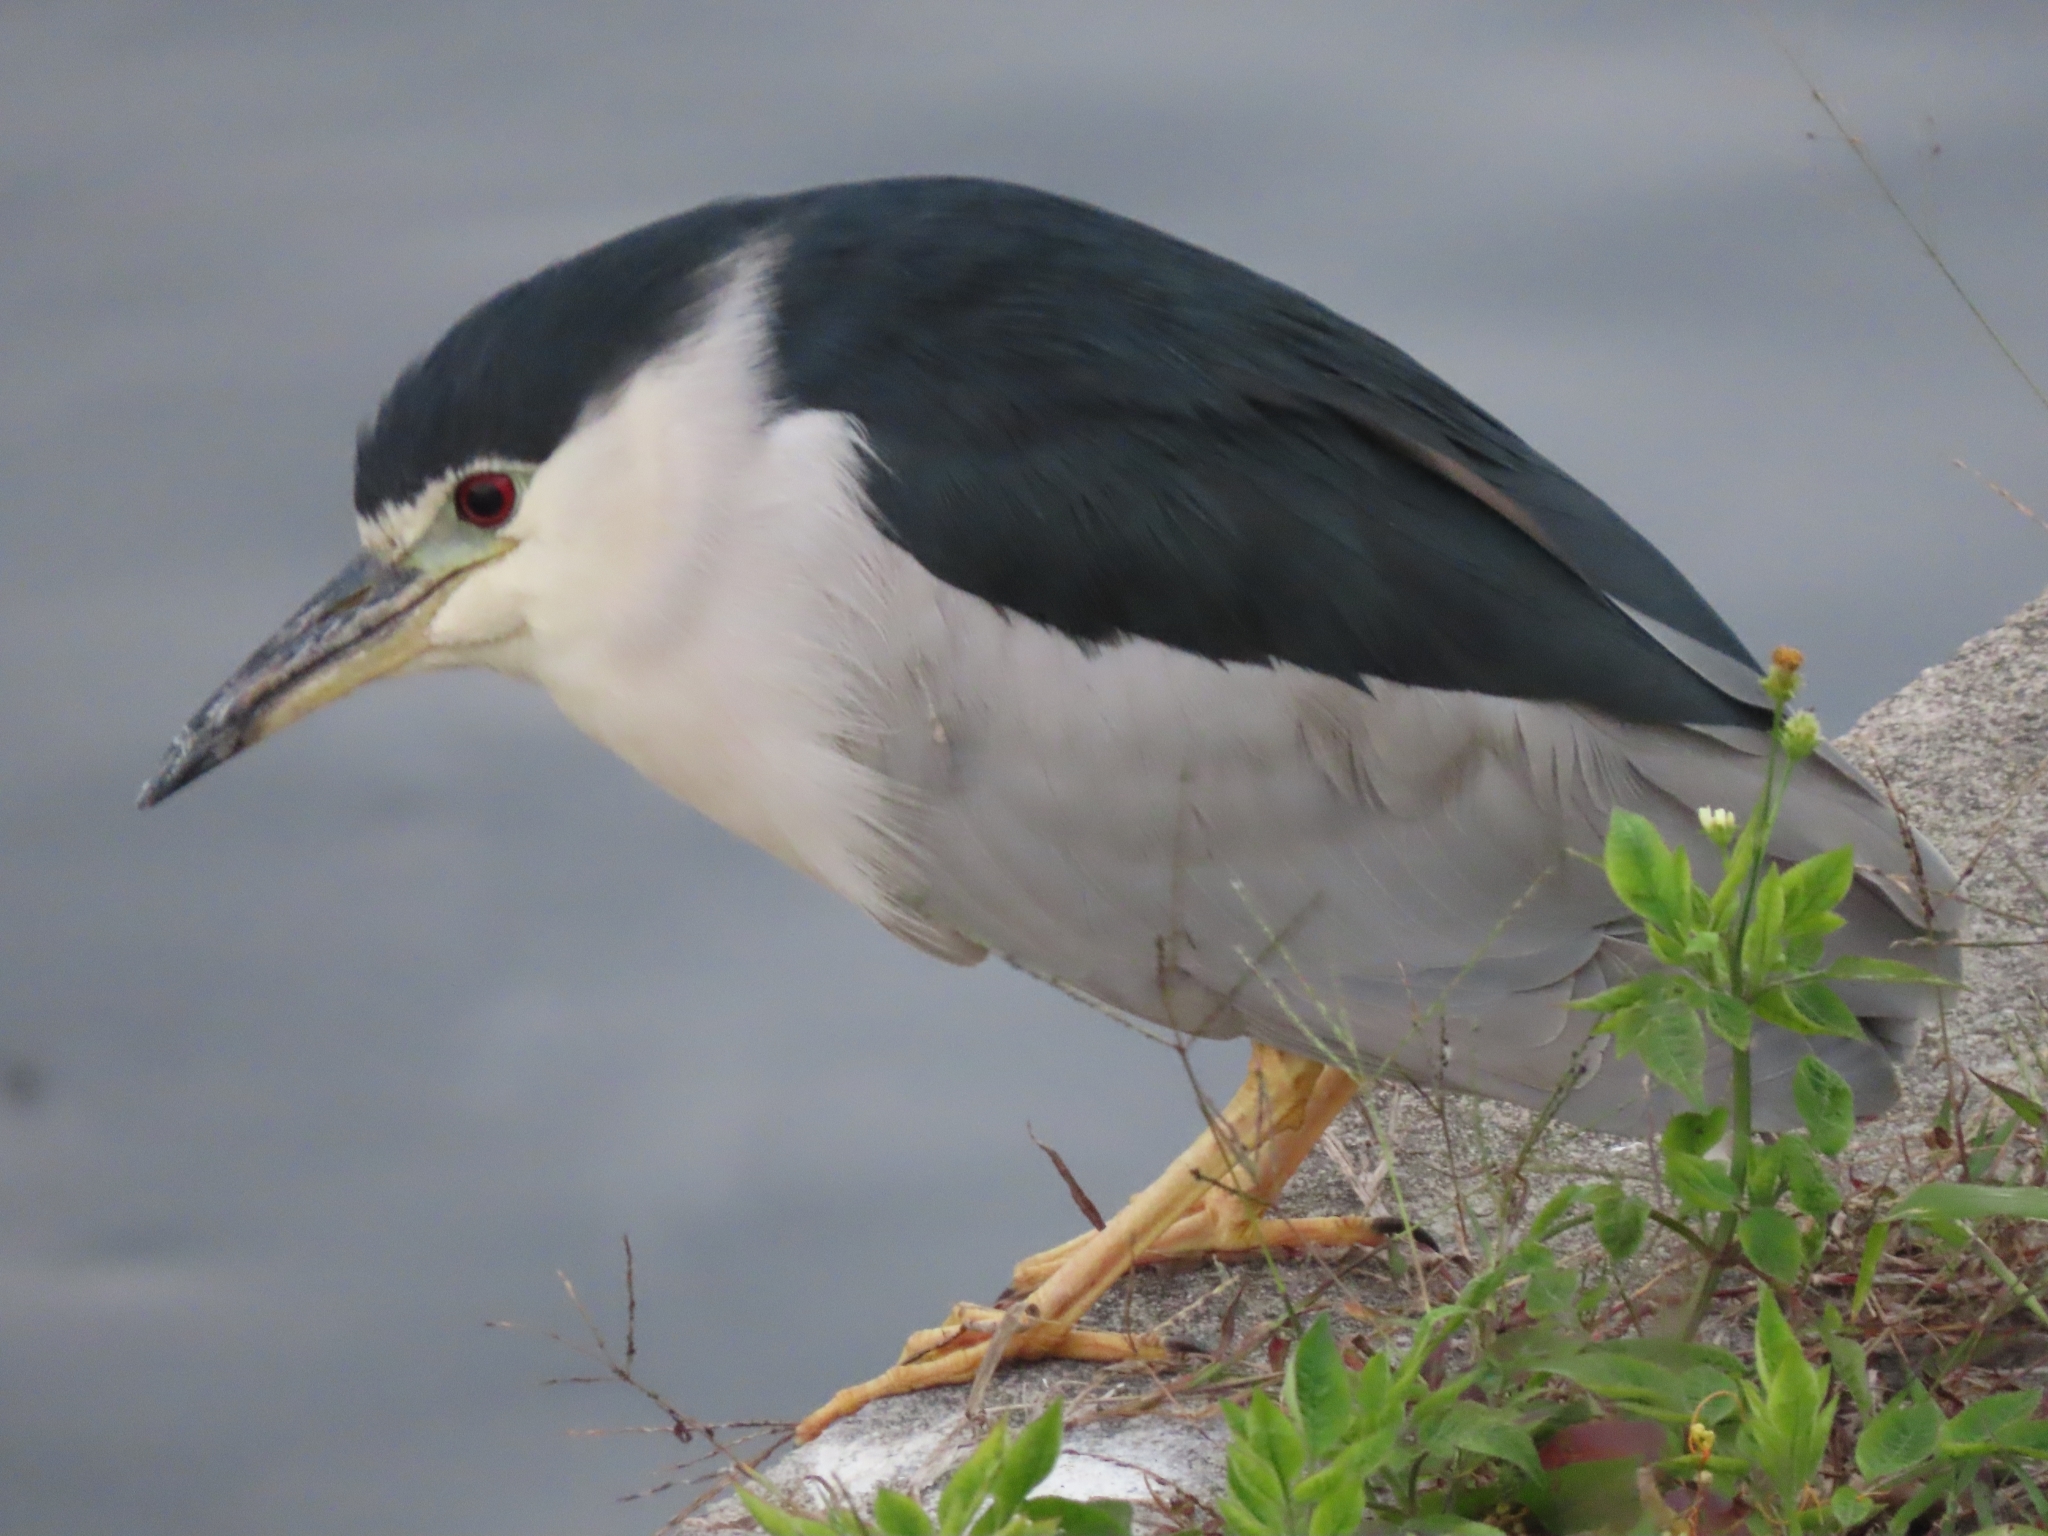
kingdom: Animalia
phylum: Chordata
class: Aves
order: Pelecaniformes
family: Ardeidae
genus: Nycticorax
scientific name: Nycticorax nycticorax
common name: Black-crowned night heron
